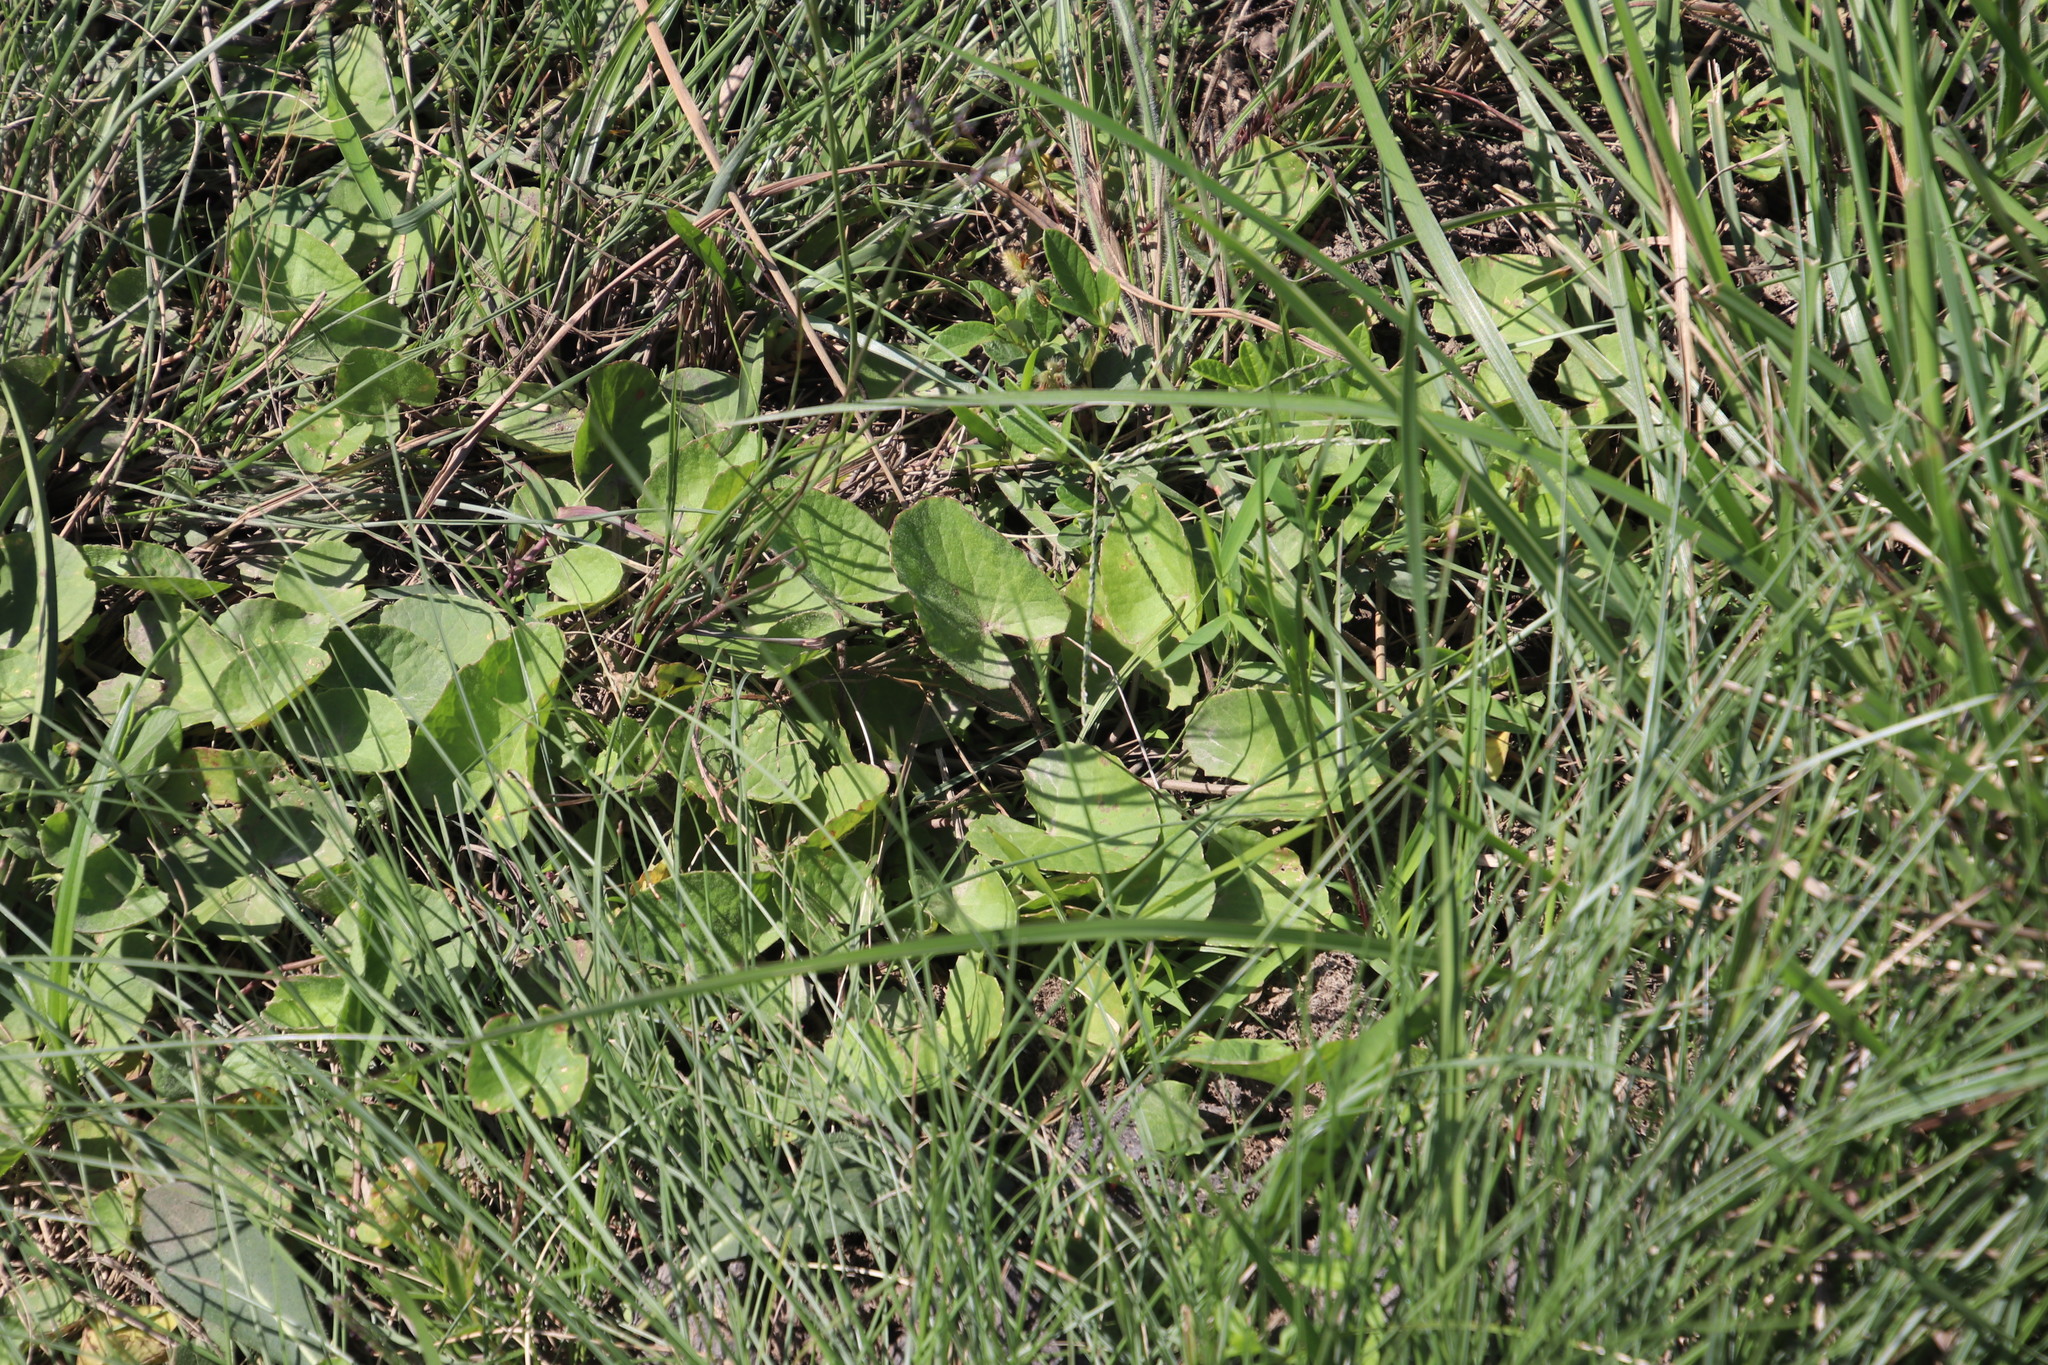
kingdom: Plantae
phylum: Tracheophyta
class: Magnoliopsida
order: Apiales
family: Apiaceae
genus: Centella
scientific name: Centella asiatica
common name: Spadeleaf
